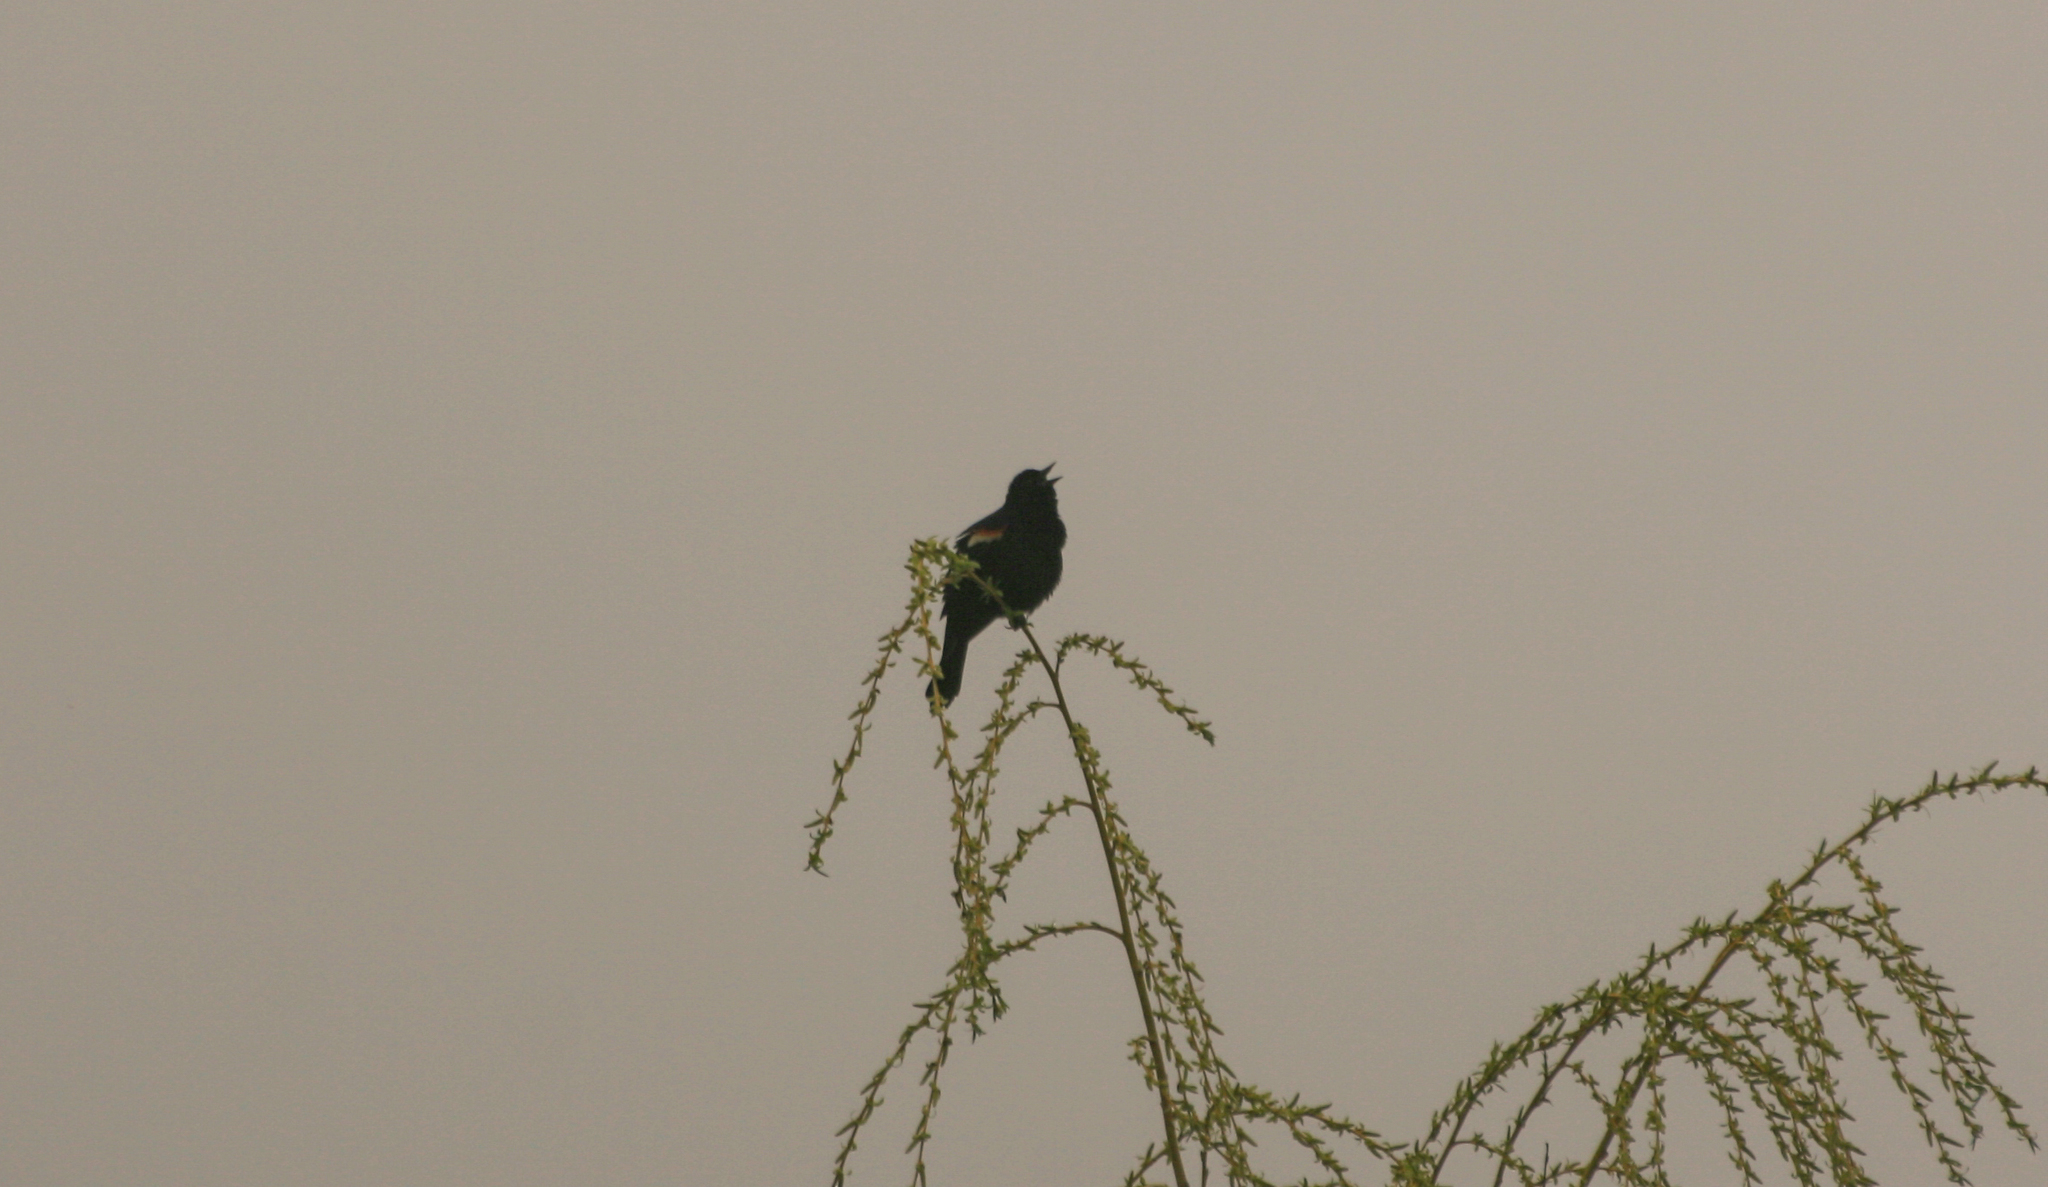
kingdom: Animalia
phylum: Chordata
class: Aves
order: Passeriformes
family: Icteridae
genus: Agelaius
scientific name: Agelaius phoeniceus
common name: Red-winged blackbird
